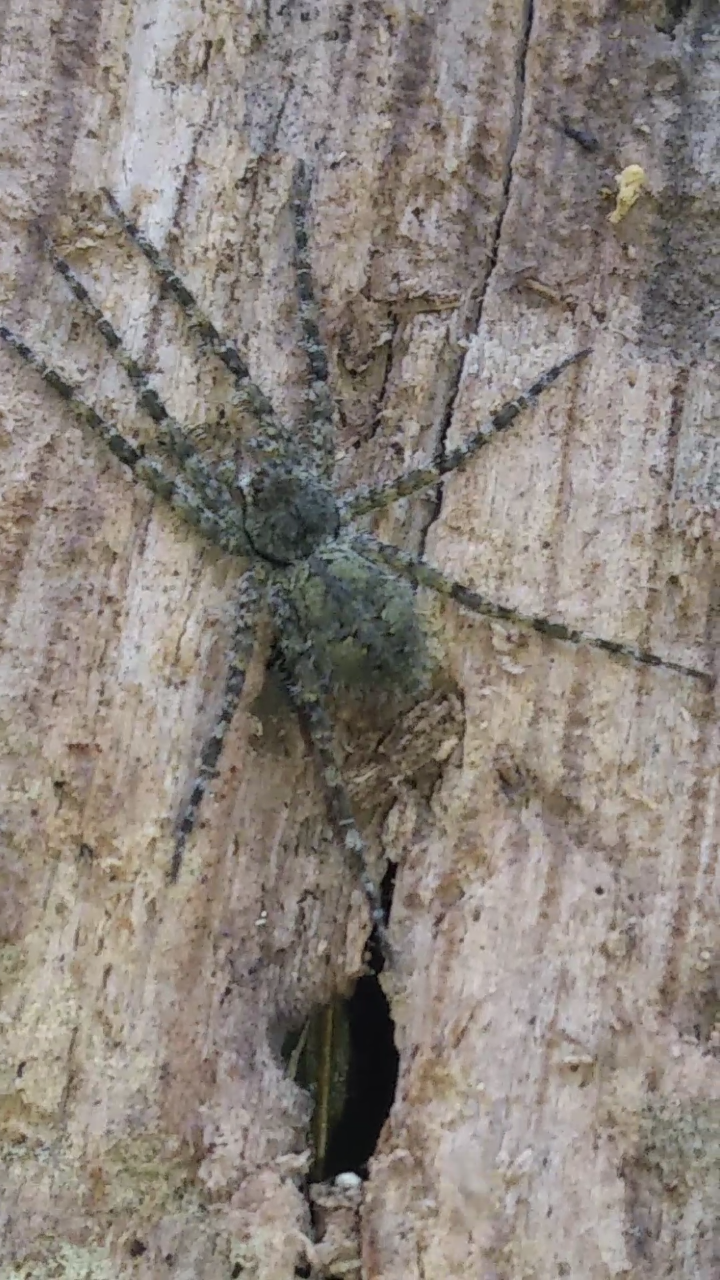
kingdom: Animalia
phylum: Arthropoda
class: Arachnida
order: Araneae
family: Pisauridae
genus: Dolomedes
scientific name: Dolomedes albineus
